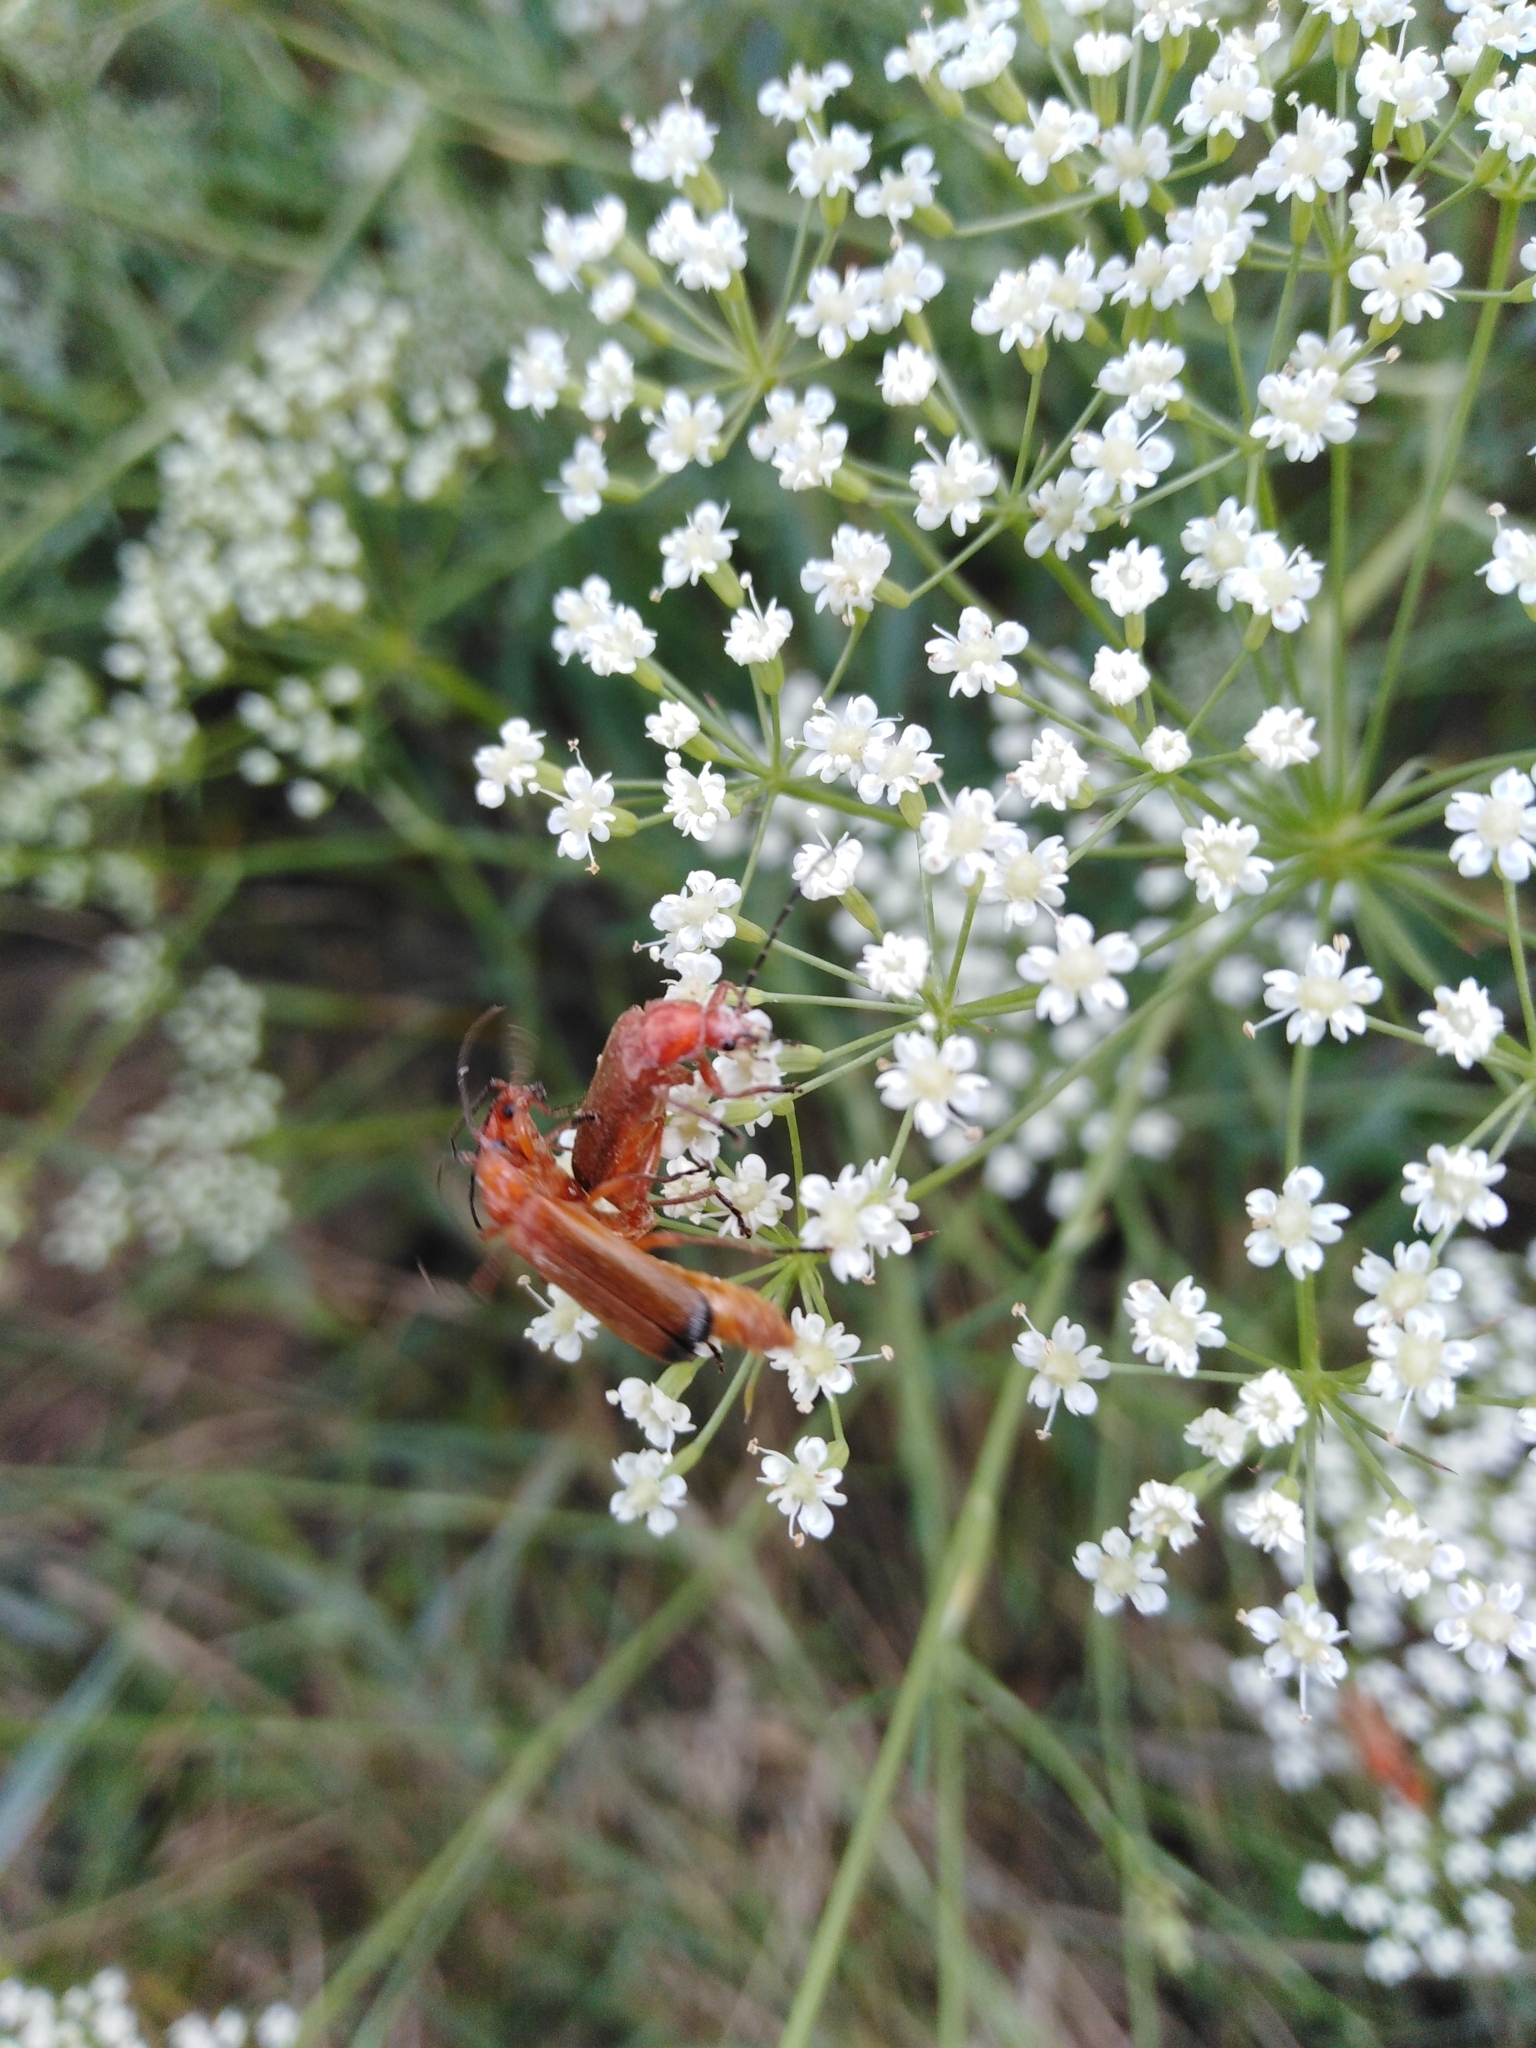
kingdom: Animalia
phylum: Arthropoda
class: Insecta
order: Coleoptera
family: Cantharidae
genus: Rhagonycha
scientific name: Rhagonycha fulva
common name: Common red soldier beetle
